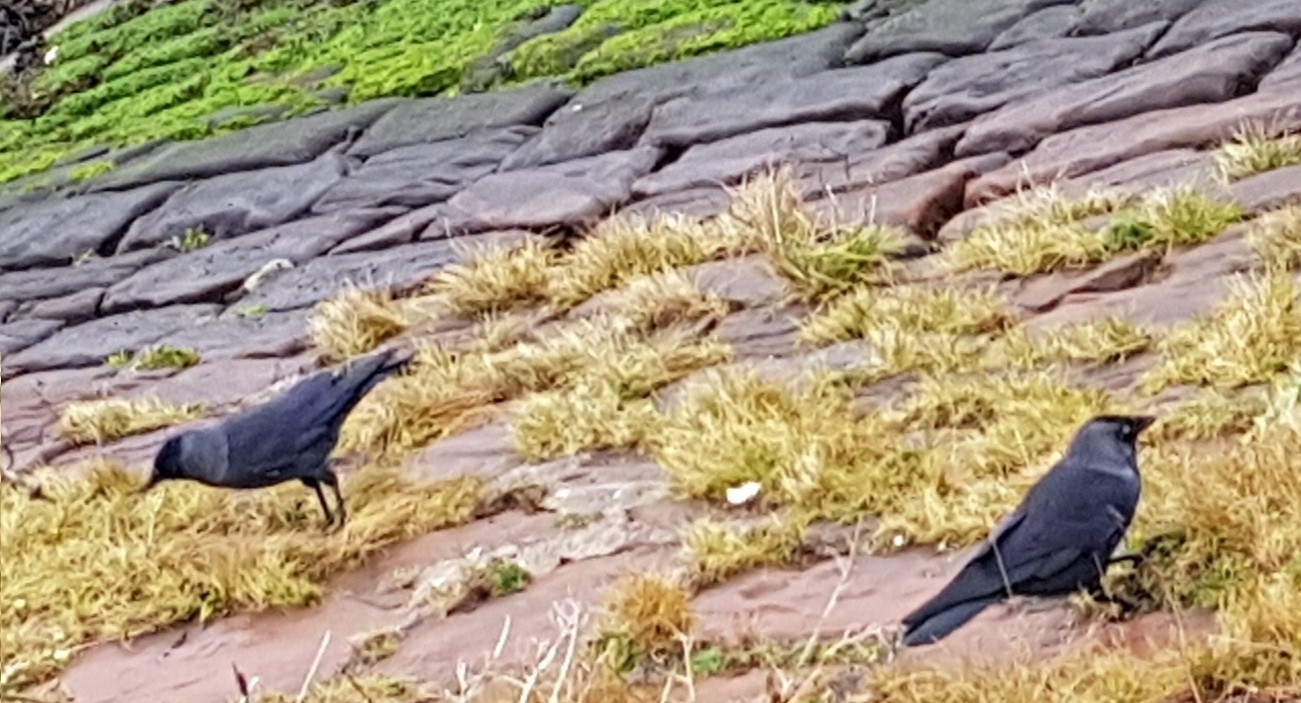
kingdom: Animalia
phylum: Chordata
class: Aves
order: Passeriformes
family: Corvidae
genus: Coloeus
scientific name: Coloeus monedula
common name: Western jackdaw
